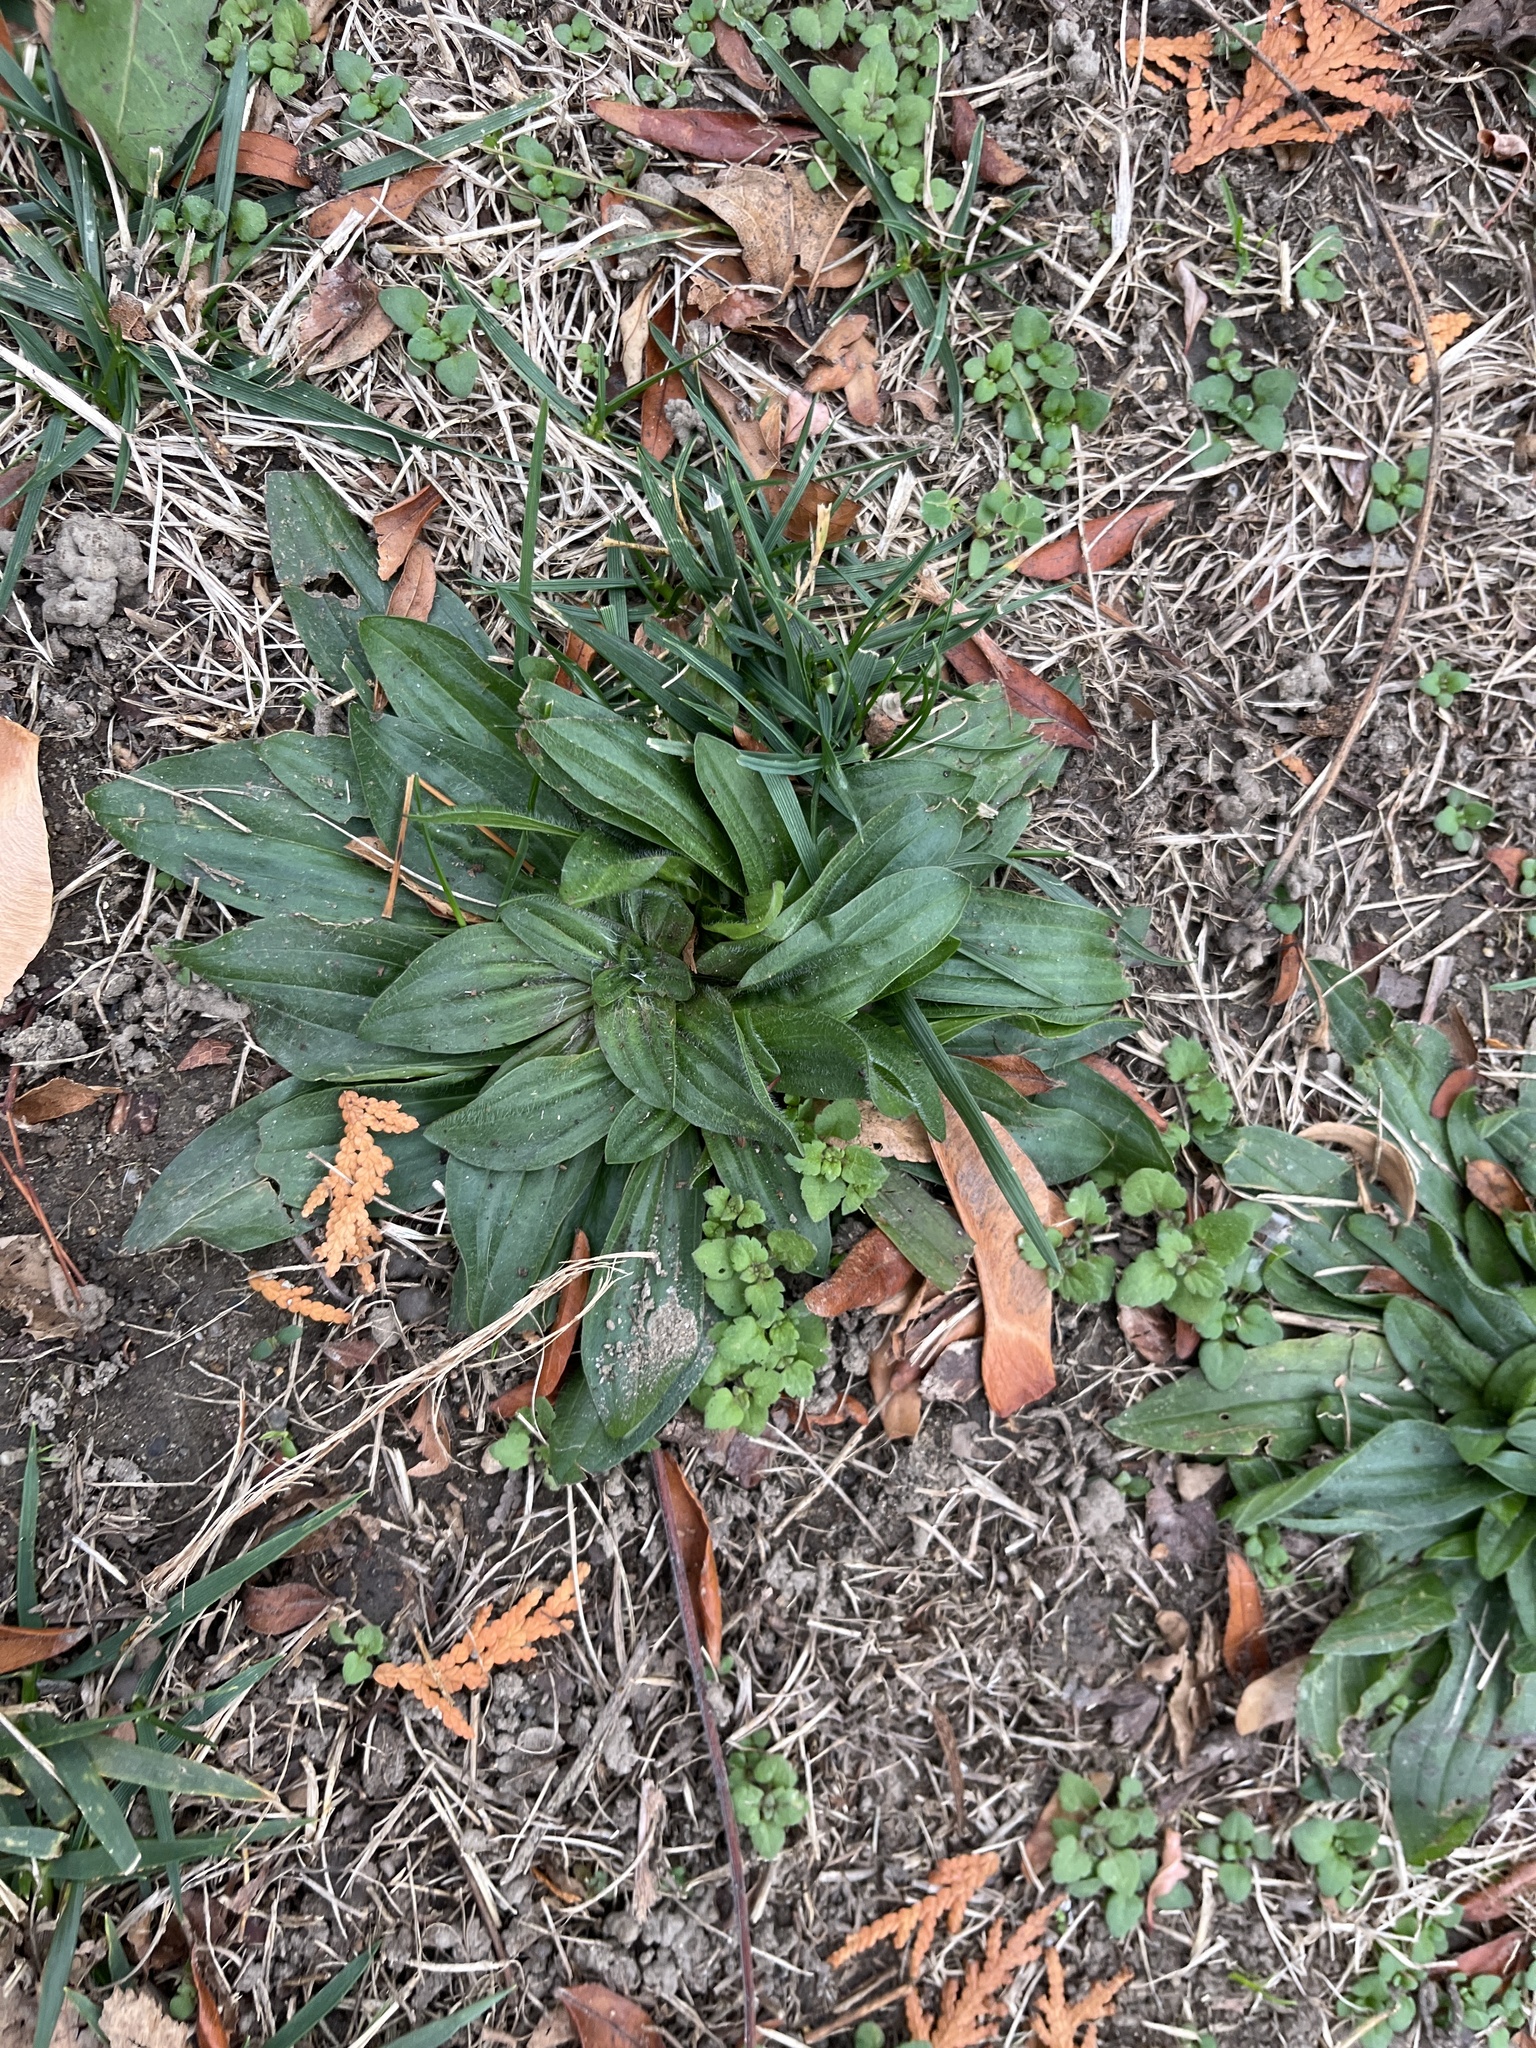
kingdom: Plantae
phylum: Tracheophyta
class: Magnoliopsida
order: Lamiales
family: Plantaginaceae
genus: Plantago
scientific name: Plantago lanceolata
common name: Ribwort plantain
